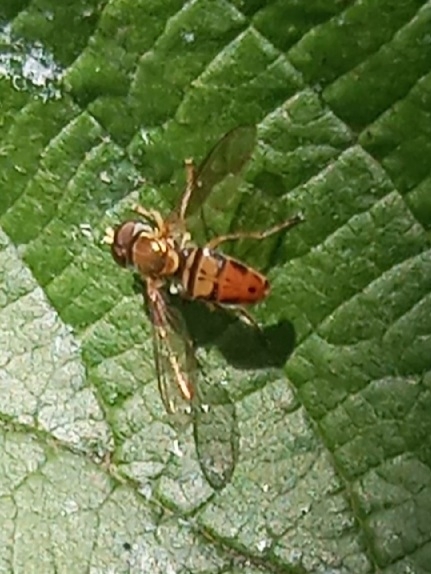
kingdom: Animalia
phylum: Arthropoda
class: Insecta
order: Diptera
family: Syrphidae
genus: Toxomerus
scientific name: Toxomerus marginatus
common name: Syrphid fly
